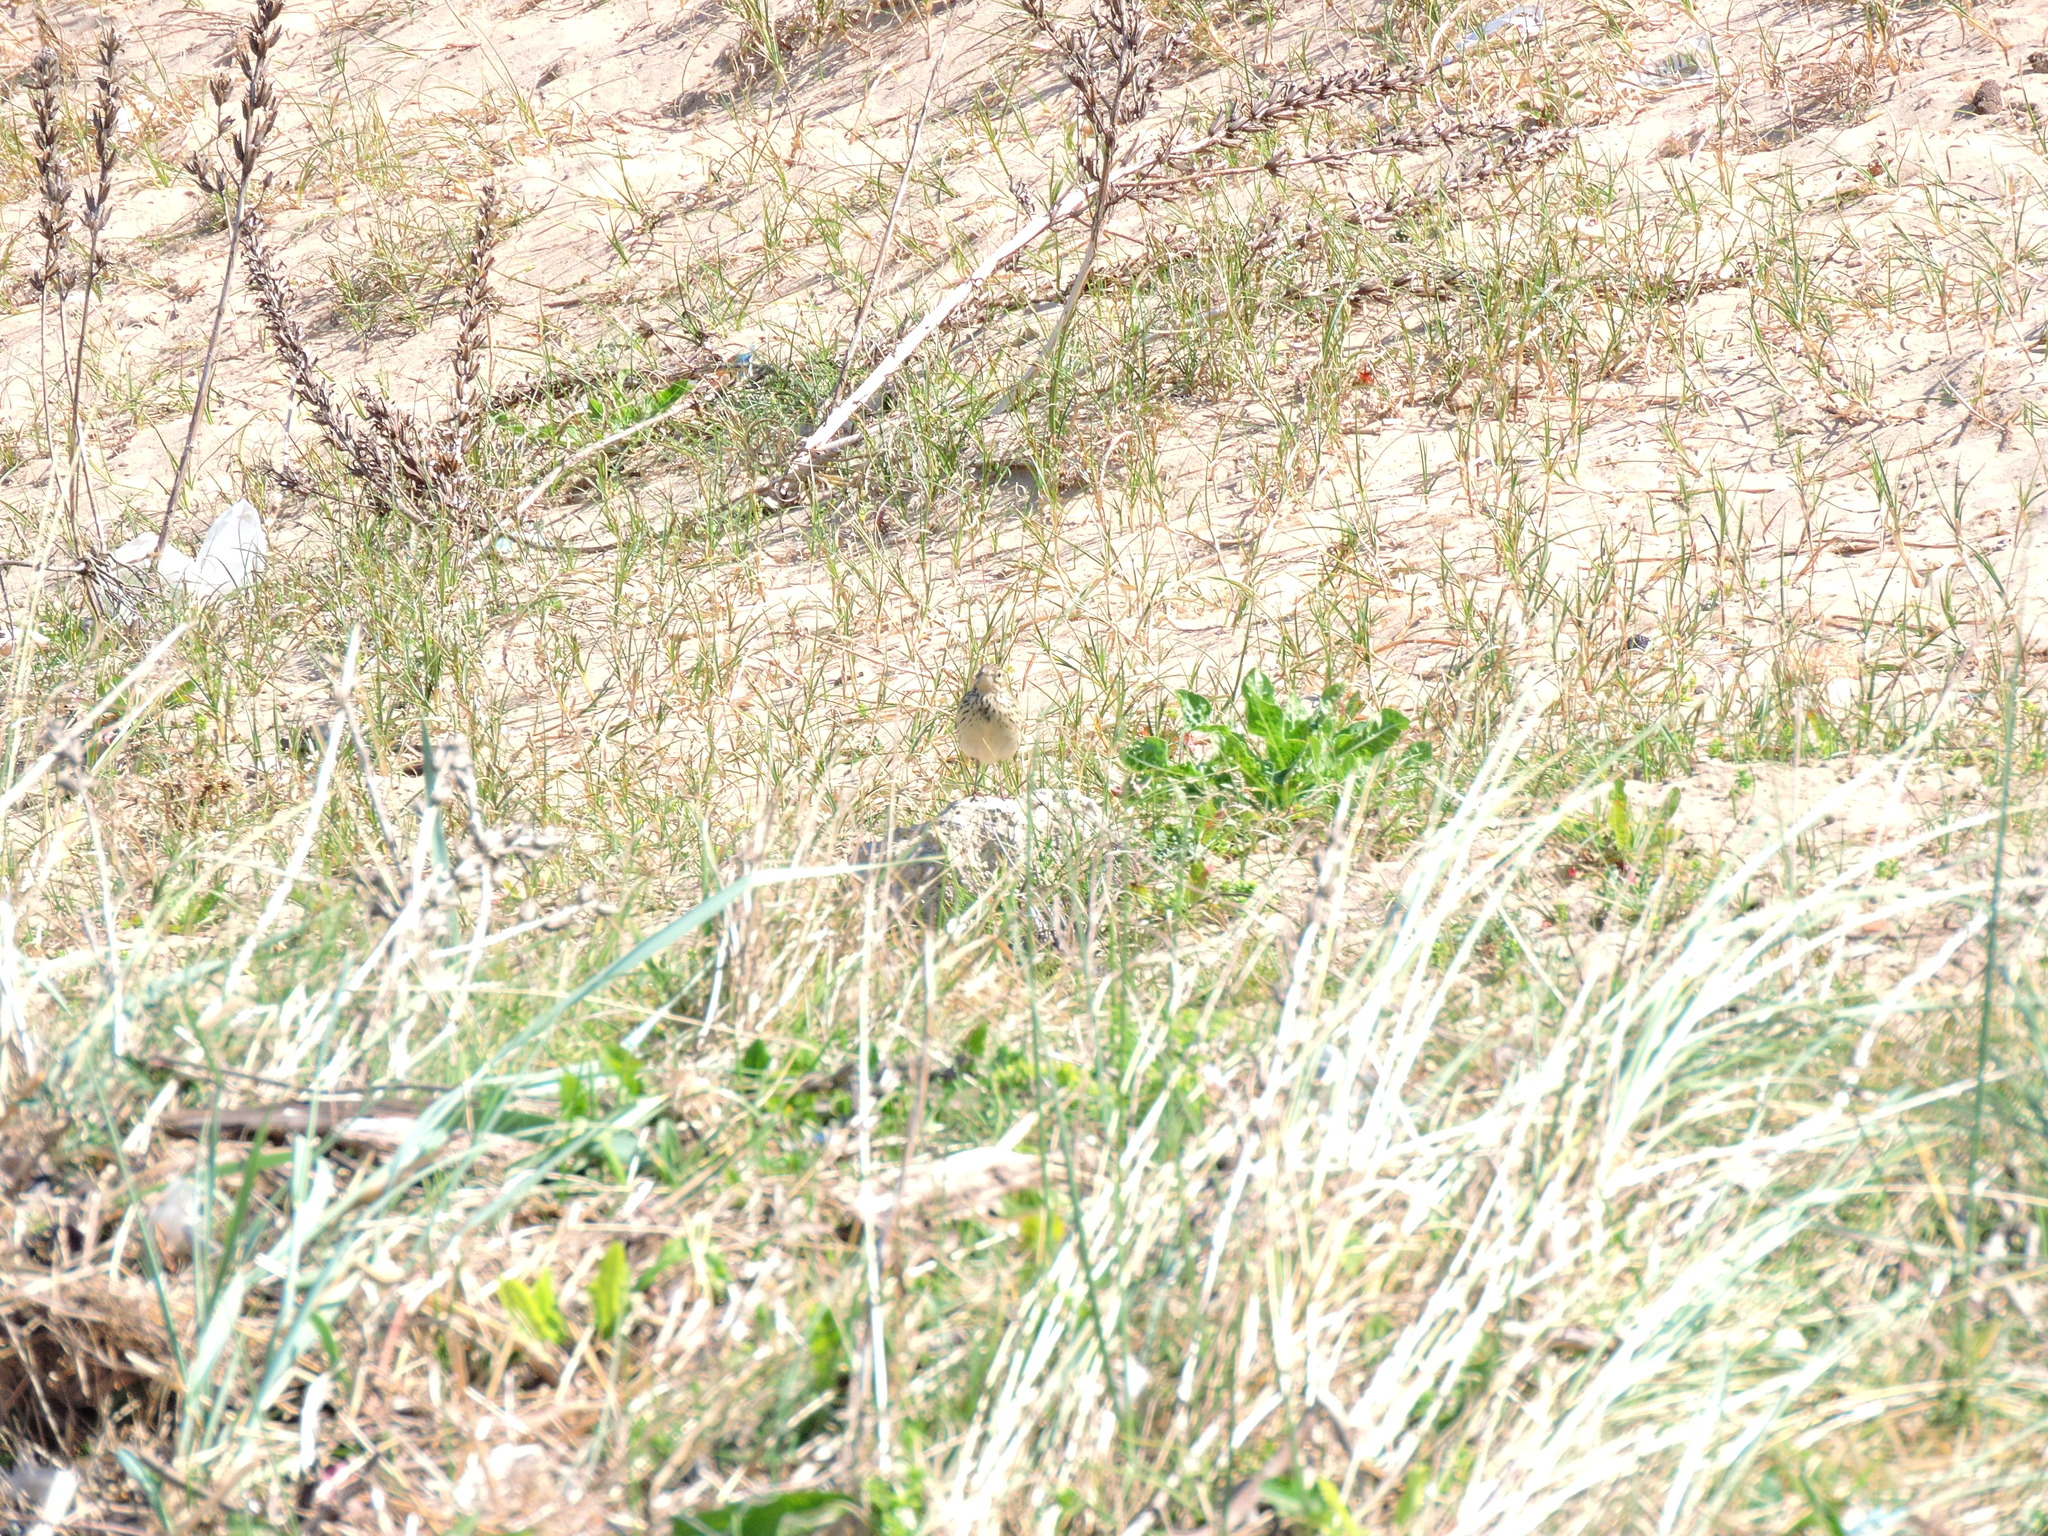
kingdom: Animalia
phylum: Chordata
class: Aves
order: Passeriformes
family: Motacillidae
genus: Anthus
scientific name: Anthus pratensis
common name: Meadow pipit
